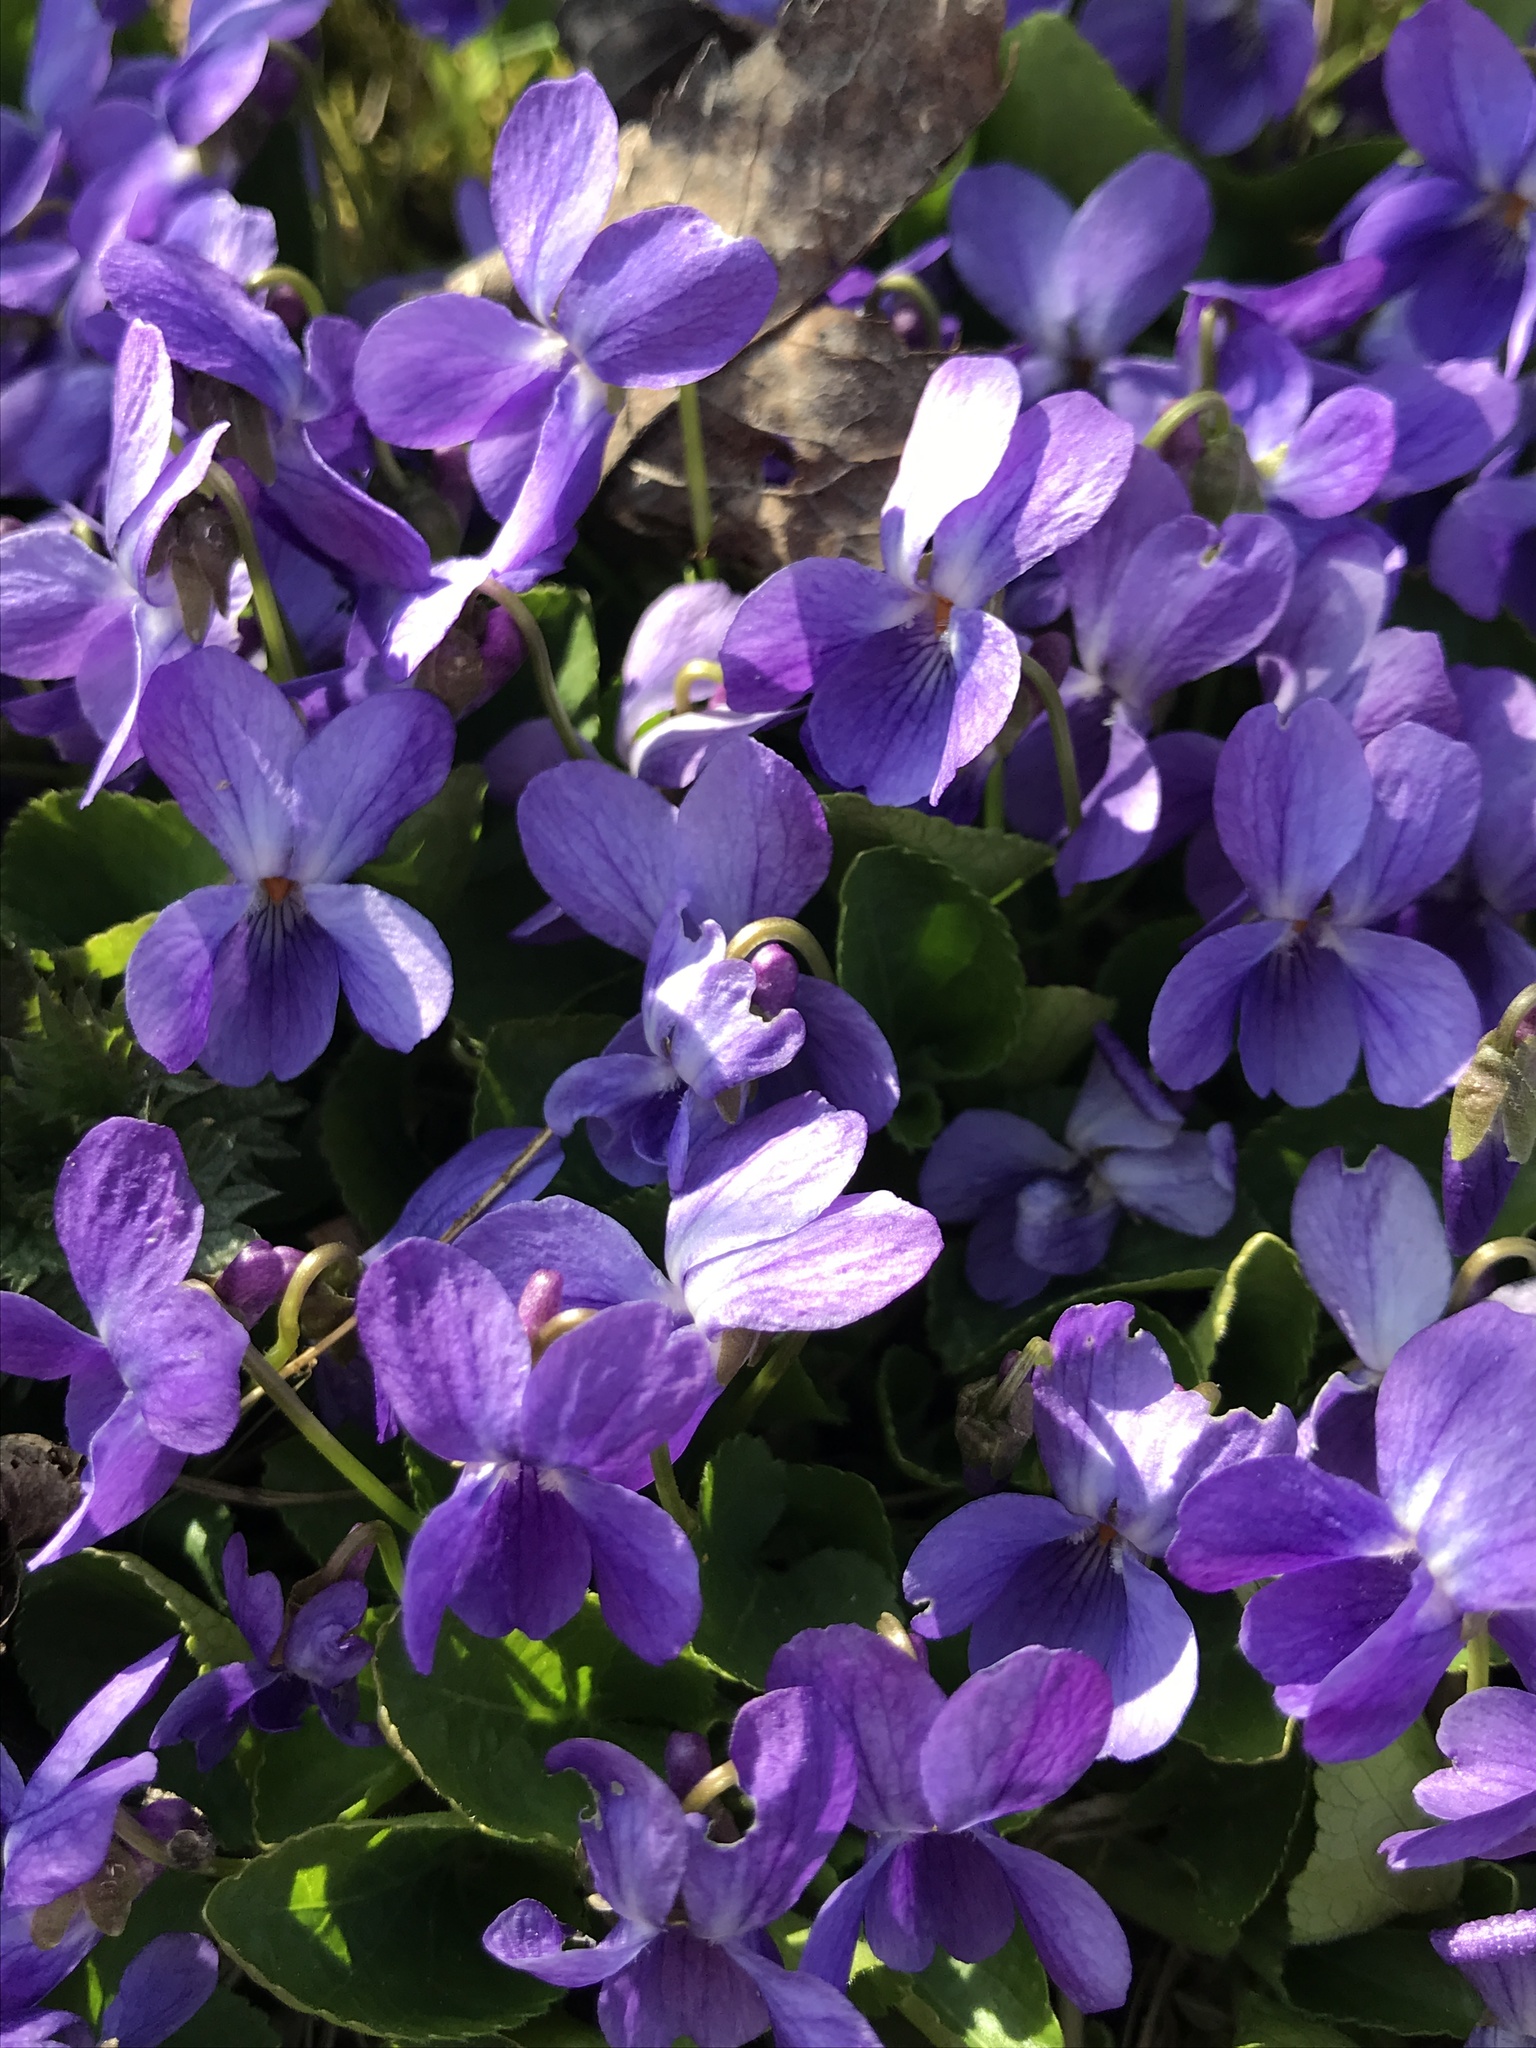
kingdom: Plantae
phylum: Tracheophyta
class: Magnoliopsida
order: Malpighiales
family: Violaceae
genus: Viola
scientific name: Viola odorata
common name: Sweet violet
